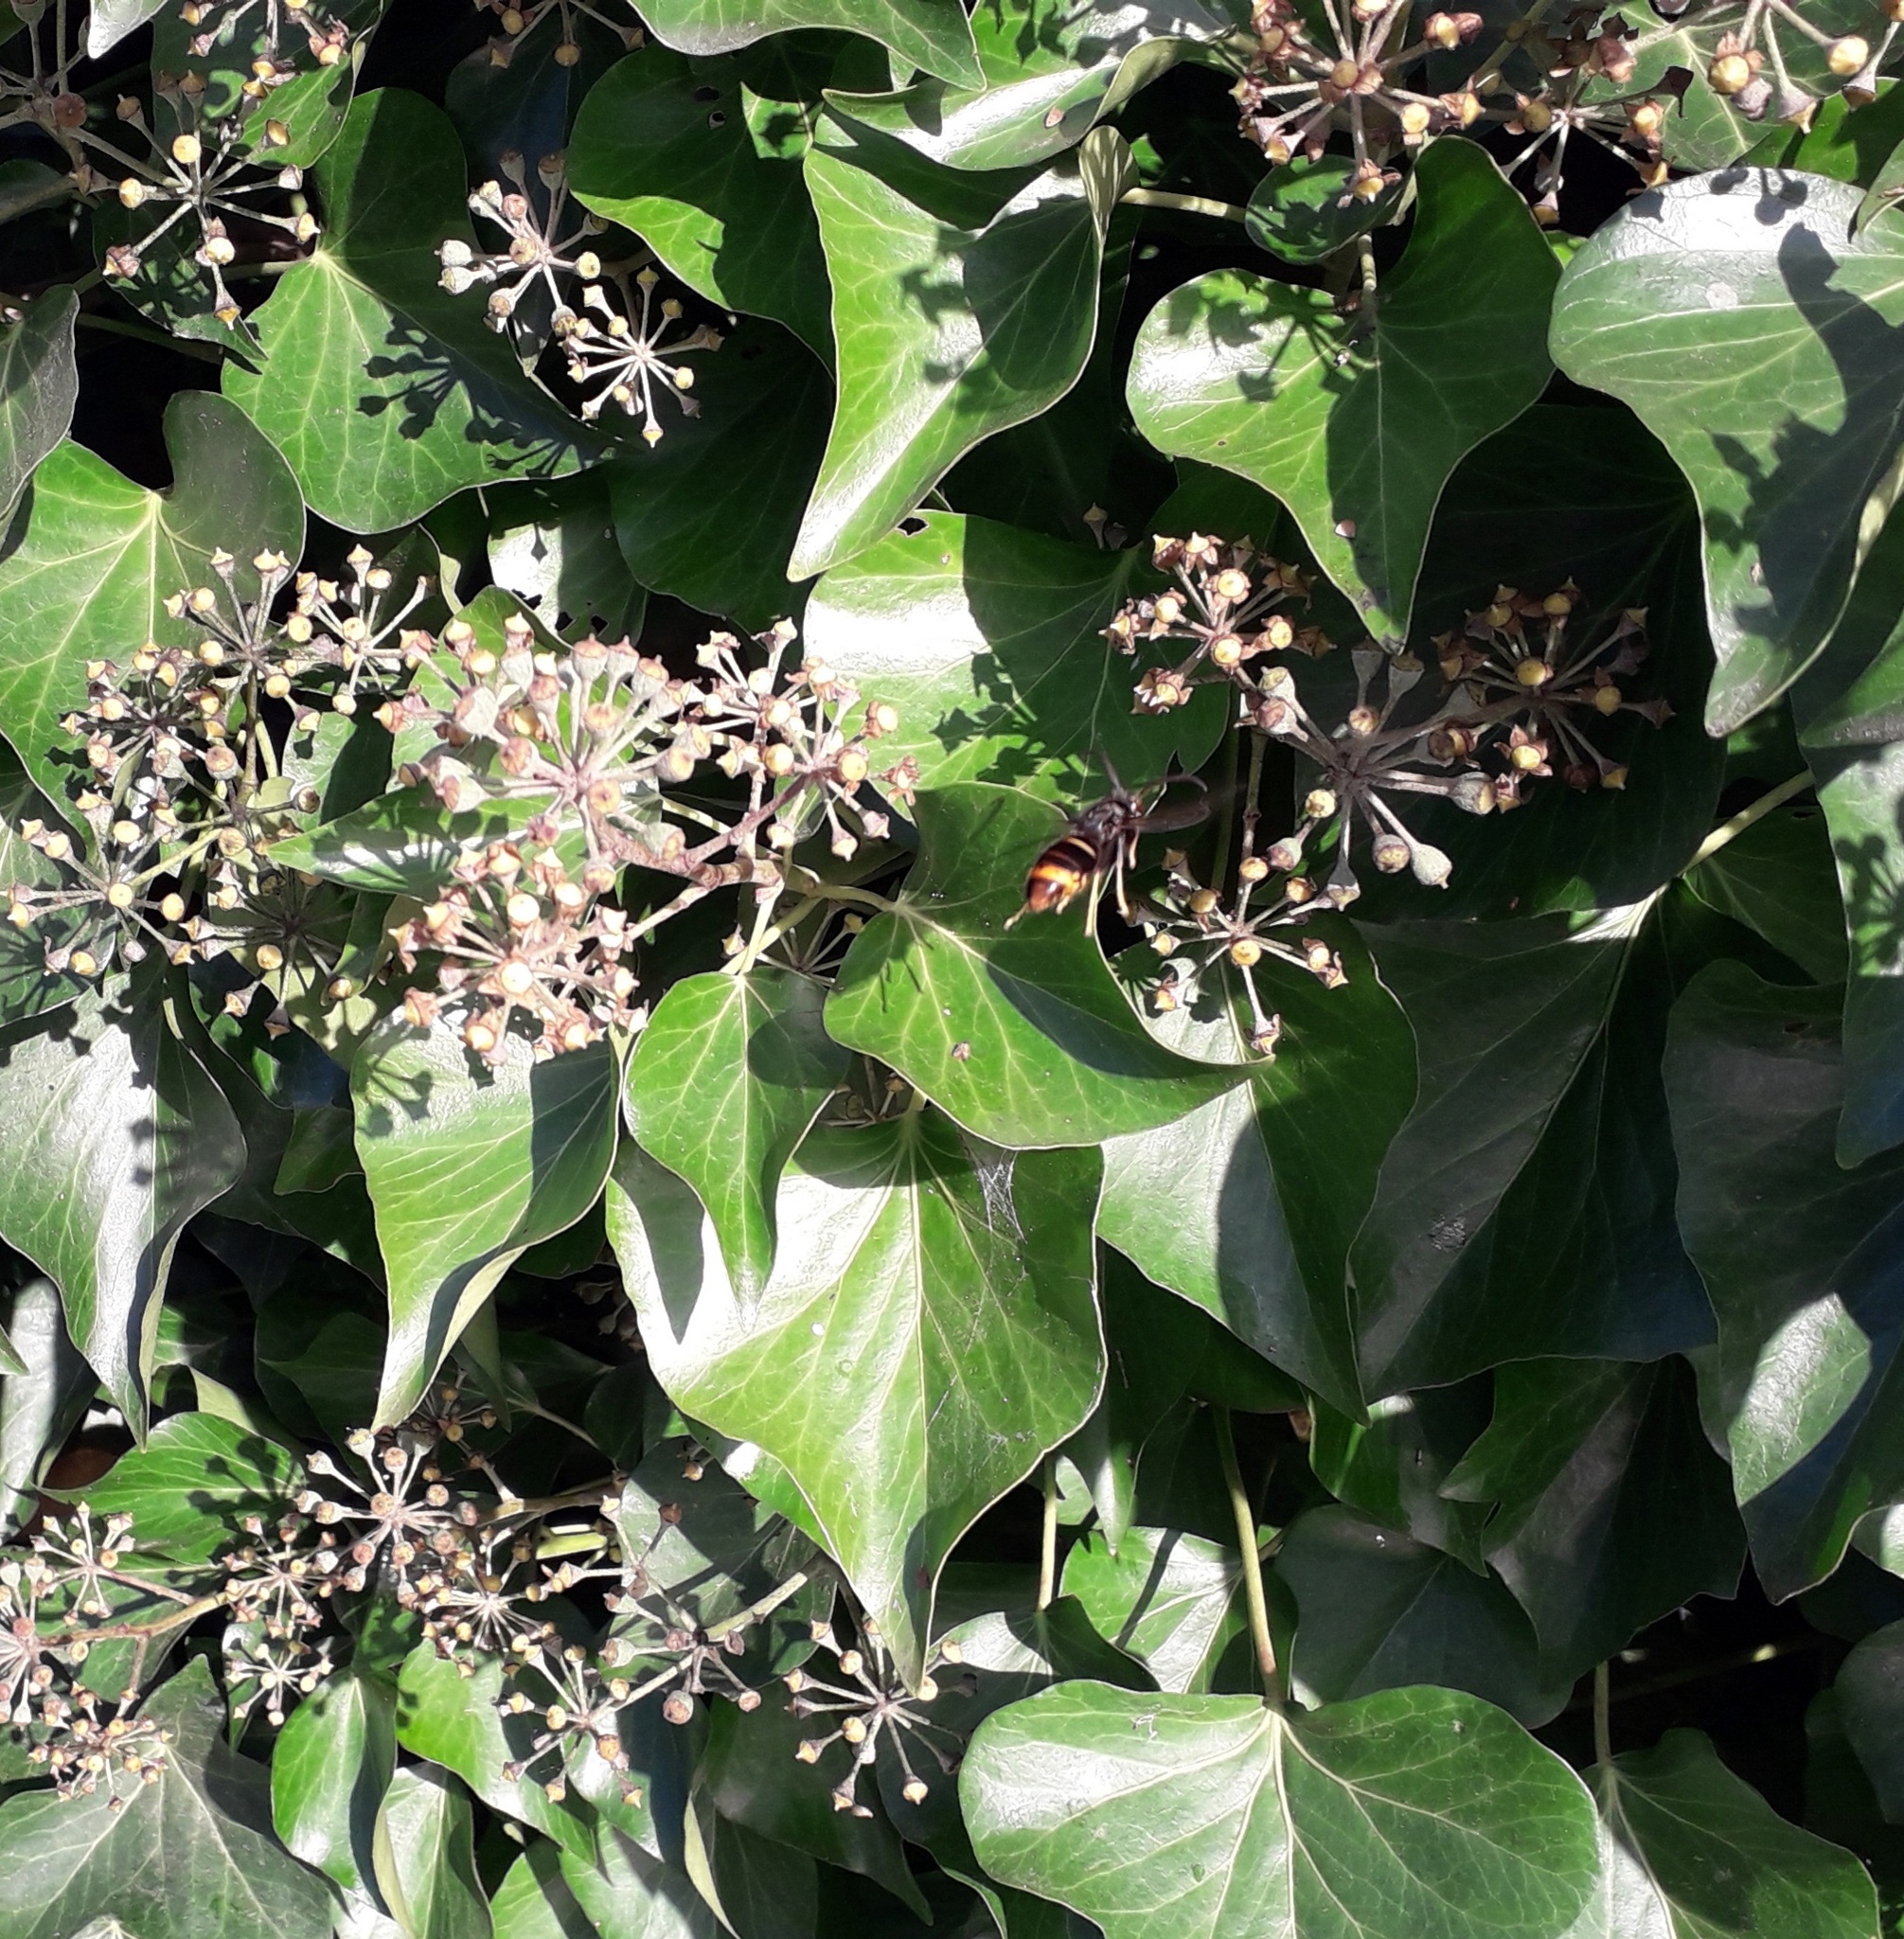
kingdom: Animalia
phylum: Arthropoda
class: Insecta
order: Hymenoptera
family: Vespidae
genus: Vespa
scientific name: Vespa velutina
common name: Asian hornet
